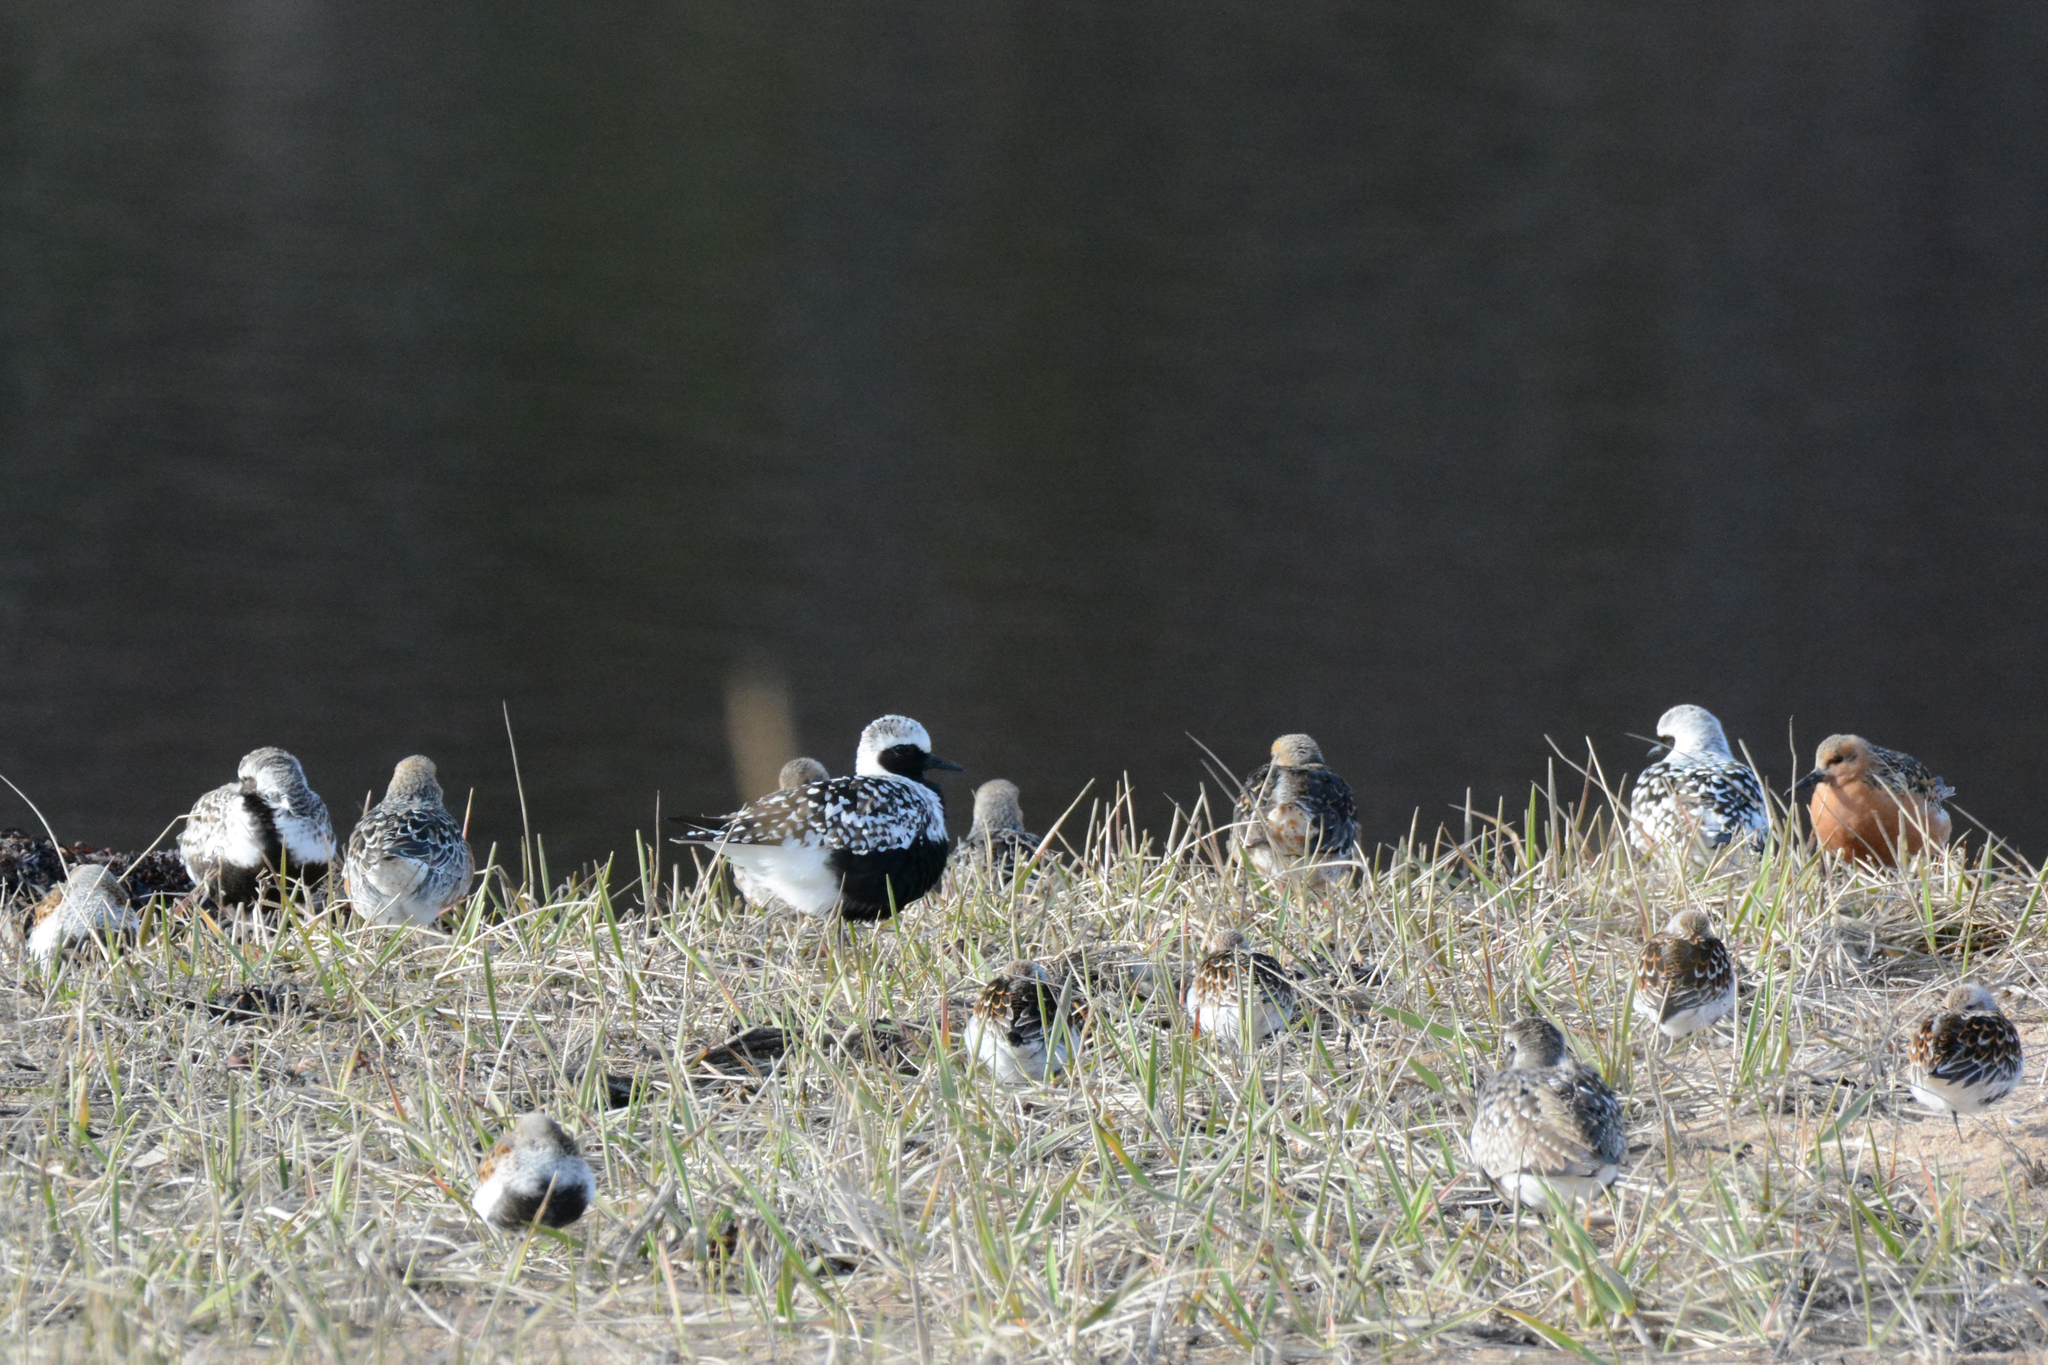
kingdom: Animalia
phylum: Chordata
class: Aves
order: Charadriiformes
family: Charadriidae
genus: Pluvialis
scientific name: Pluvialis squatarola
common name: Grey plover
